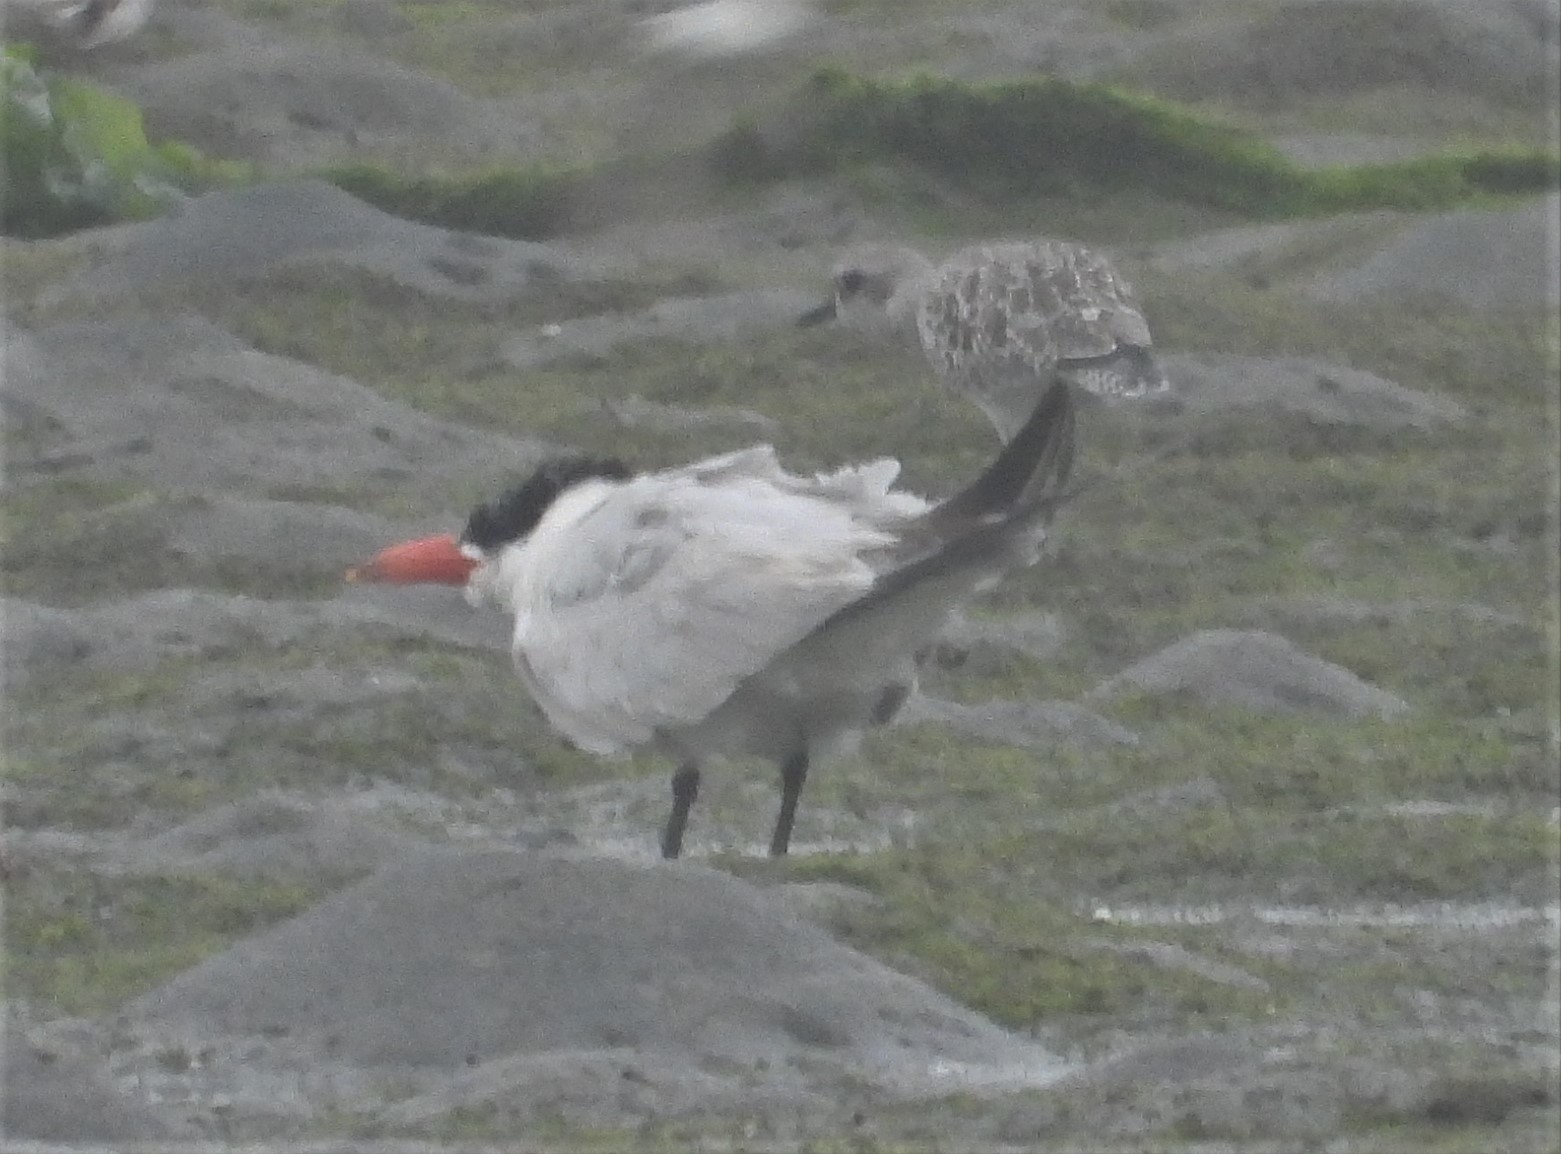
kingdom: Animalia
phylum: Chordata
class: Aves
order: Charadriiformes
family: Laridae
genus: Hydroprogne
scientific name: Hydroprogne caspia
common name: Caspian tern
